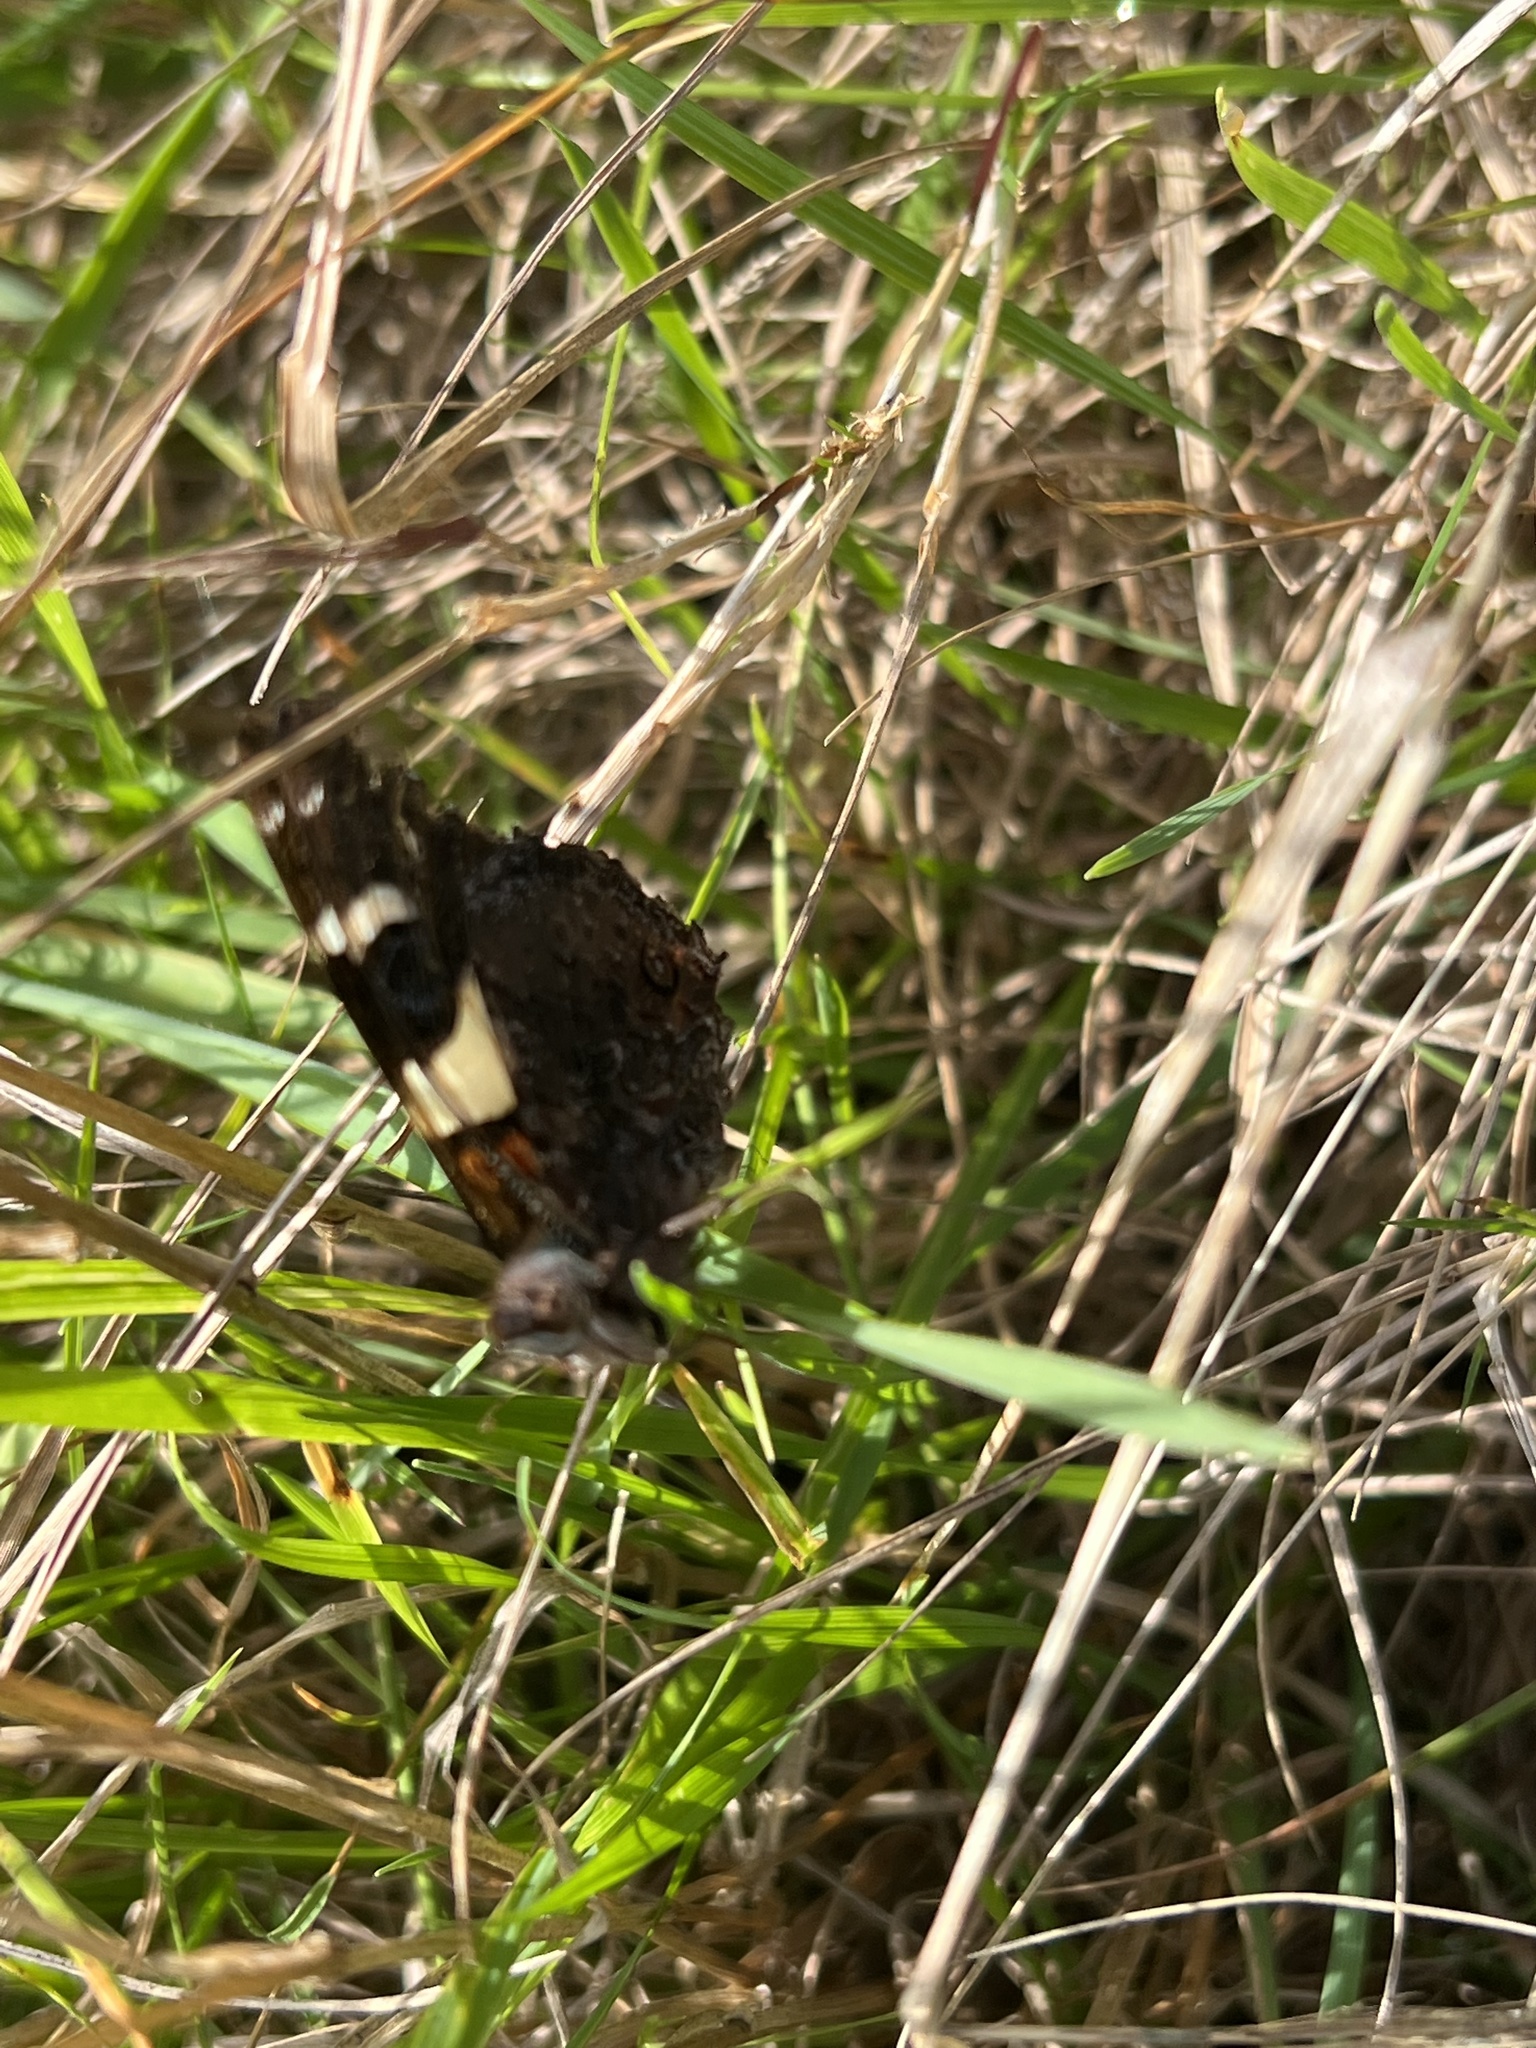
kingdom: Animalia
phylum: Arthropoda
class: Insecta
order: Lepidoptera
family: Nymphalidae
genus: Vanessa
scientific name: Vanessa itea
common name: Yellow admiral
